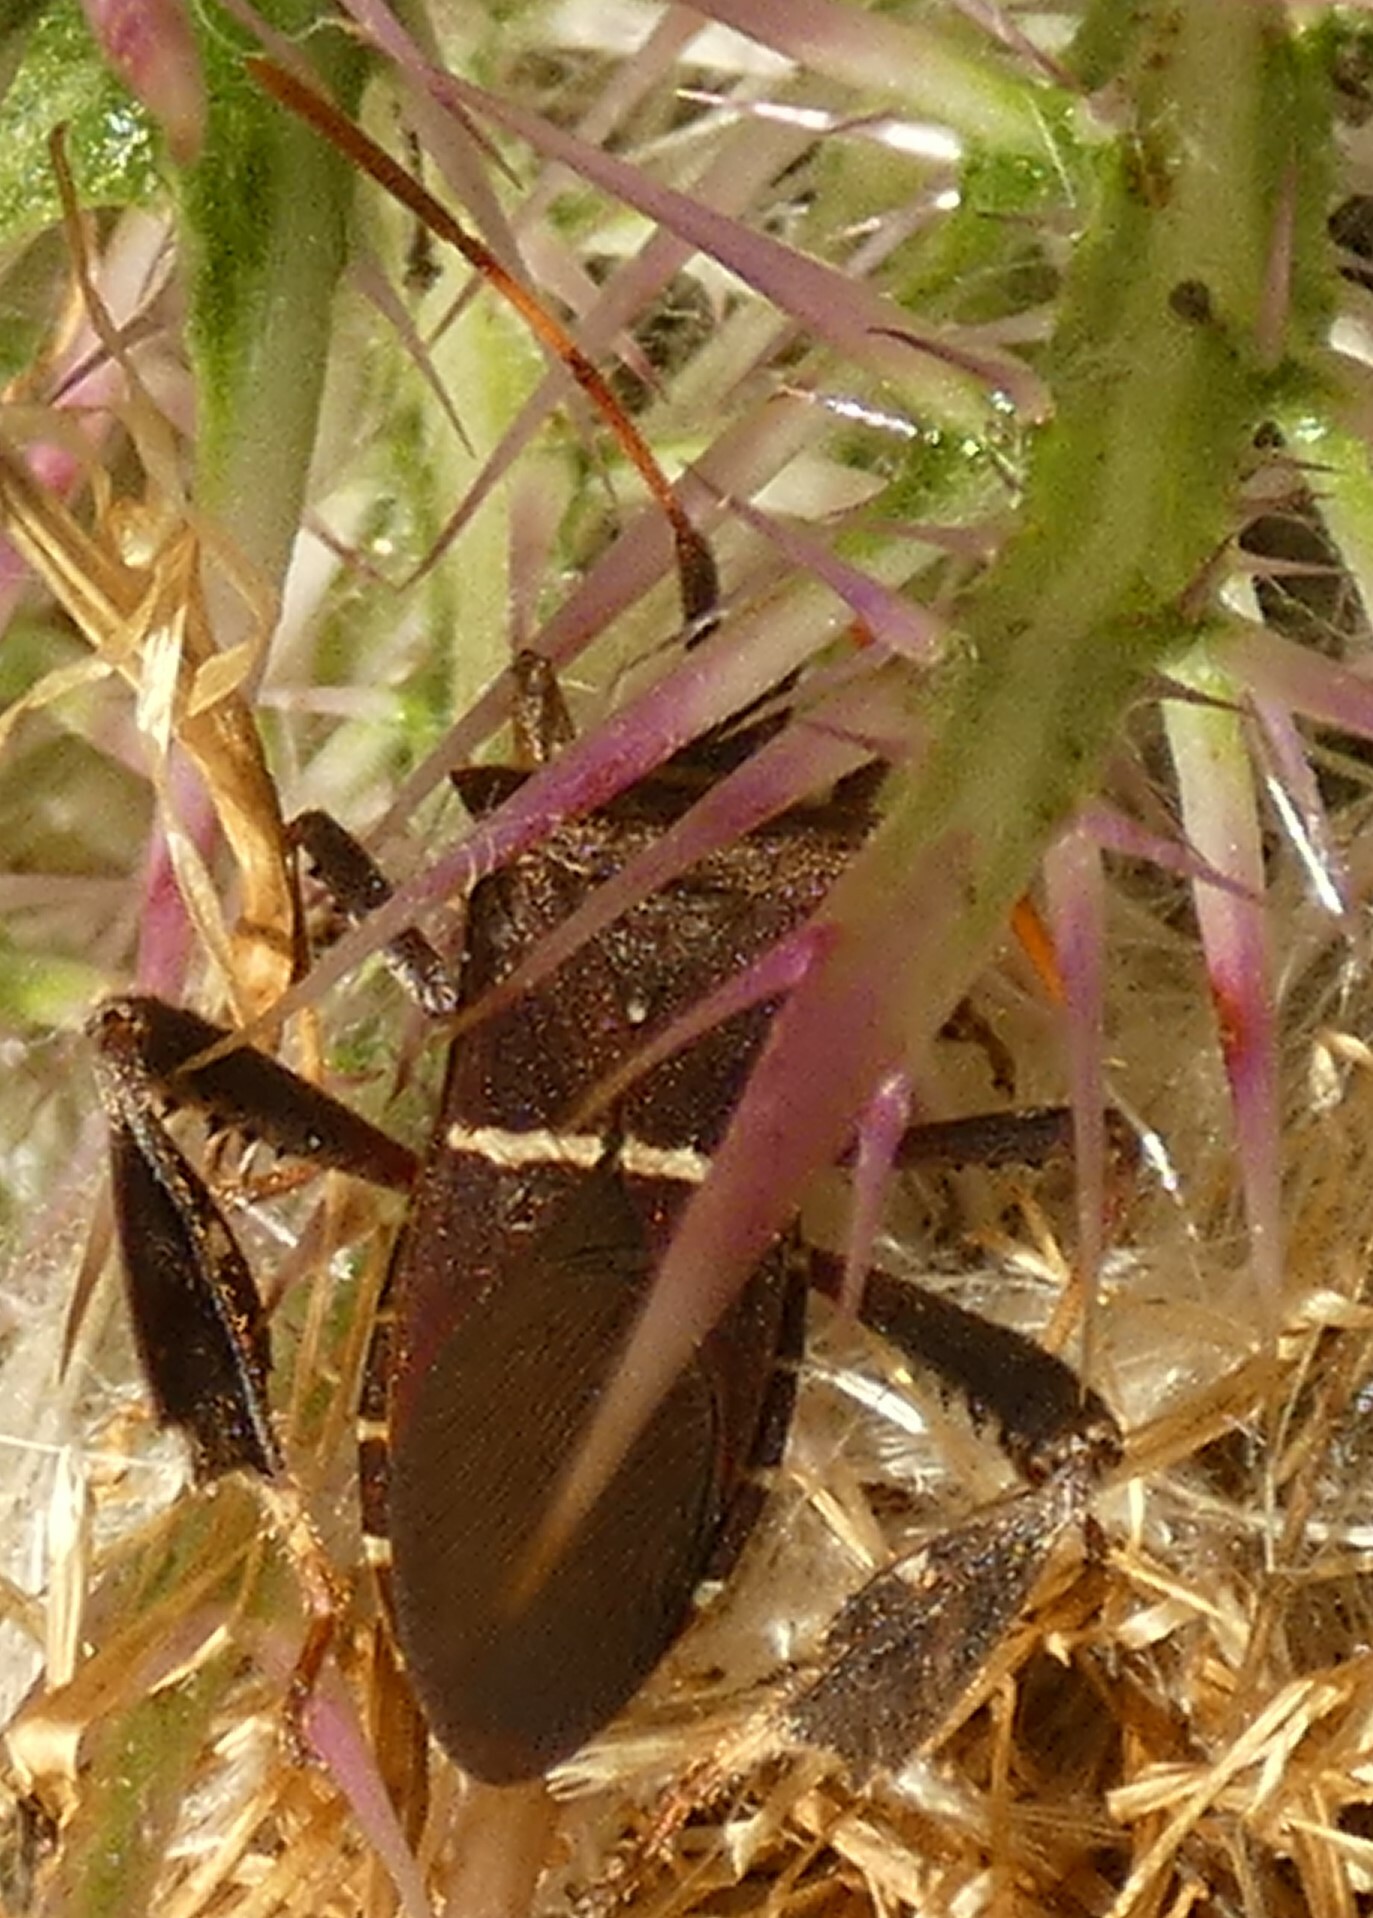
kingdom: Animalia
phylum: Arthropoda
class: Insecta
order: Hemiptera
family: Coreidae
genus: Leptoglossus
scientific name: Leptoglossus phyllopus
